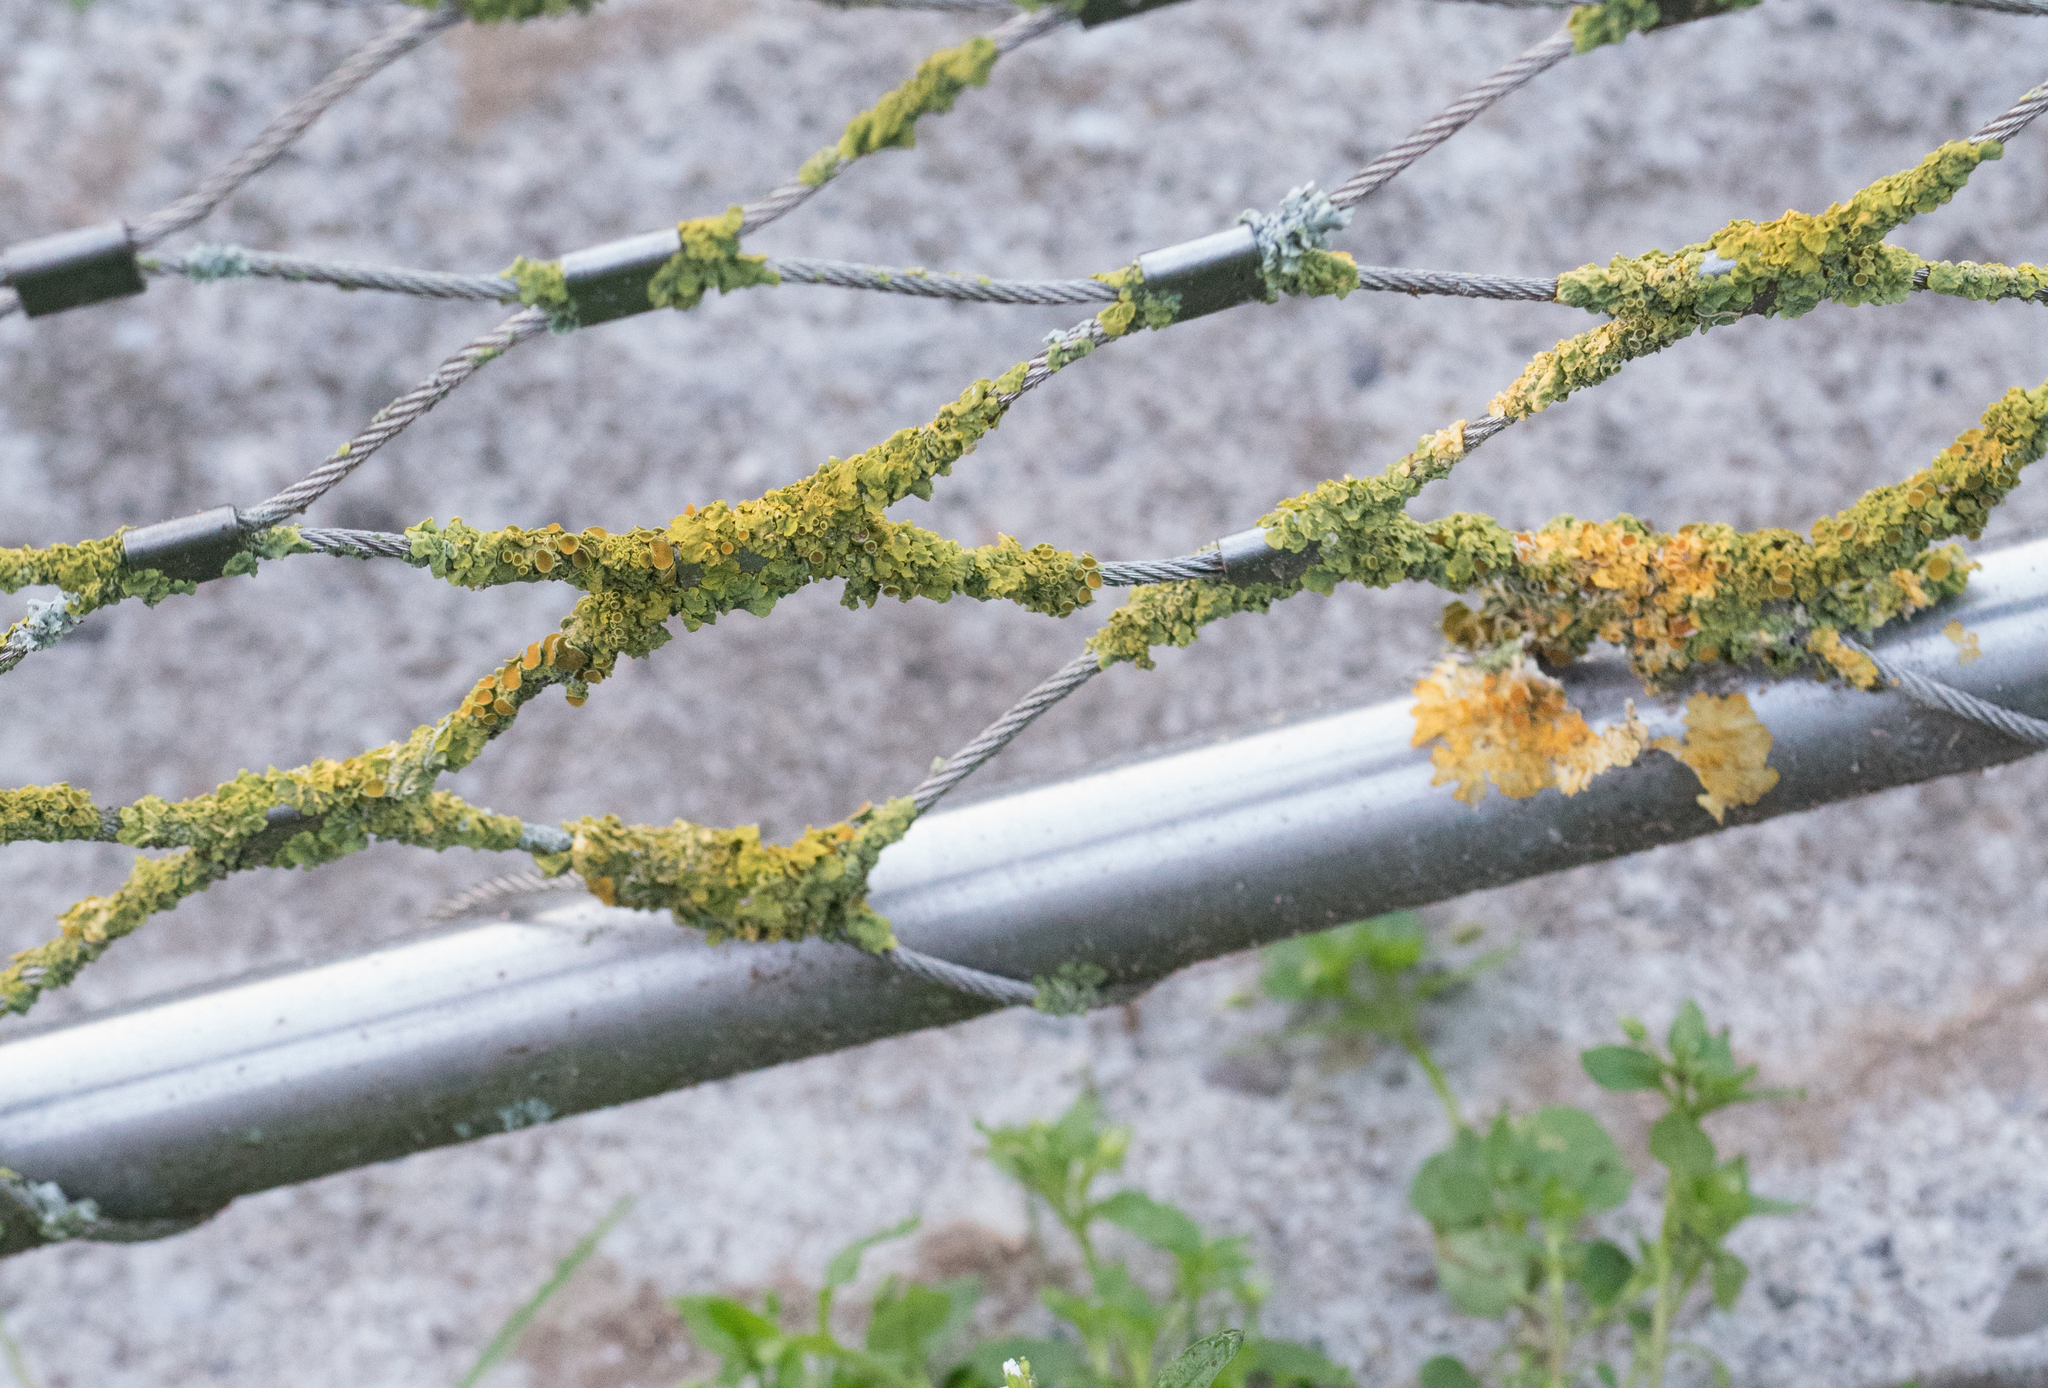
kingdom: Fungi
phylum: Ascomycota
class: Lecanoromycetes
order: Teloschistales
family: Teloschistaceae
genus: Xanthoria
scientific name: Xanthoria parietina
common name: Common orange lichen
